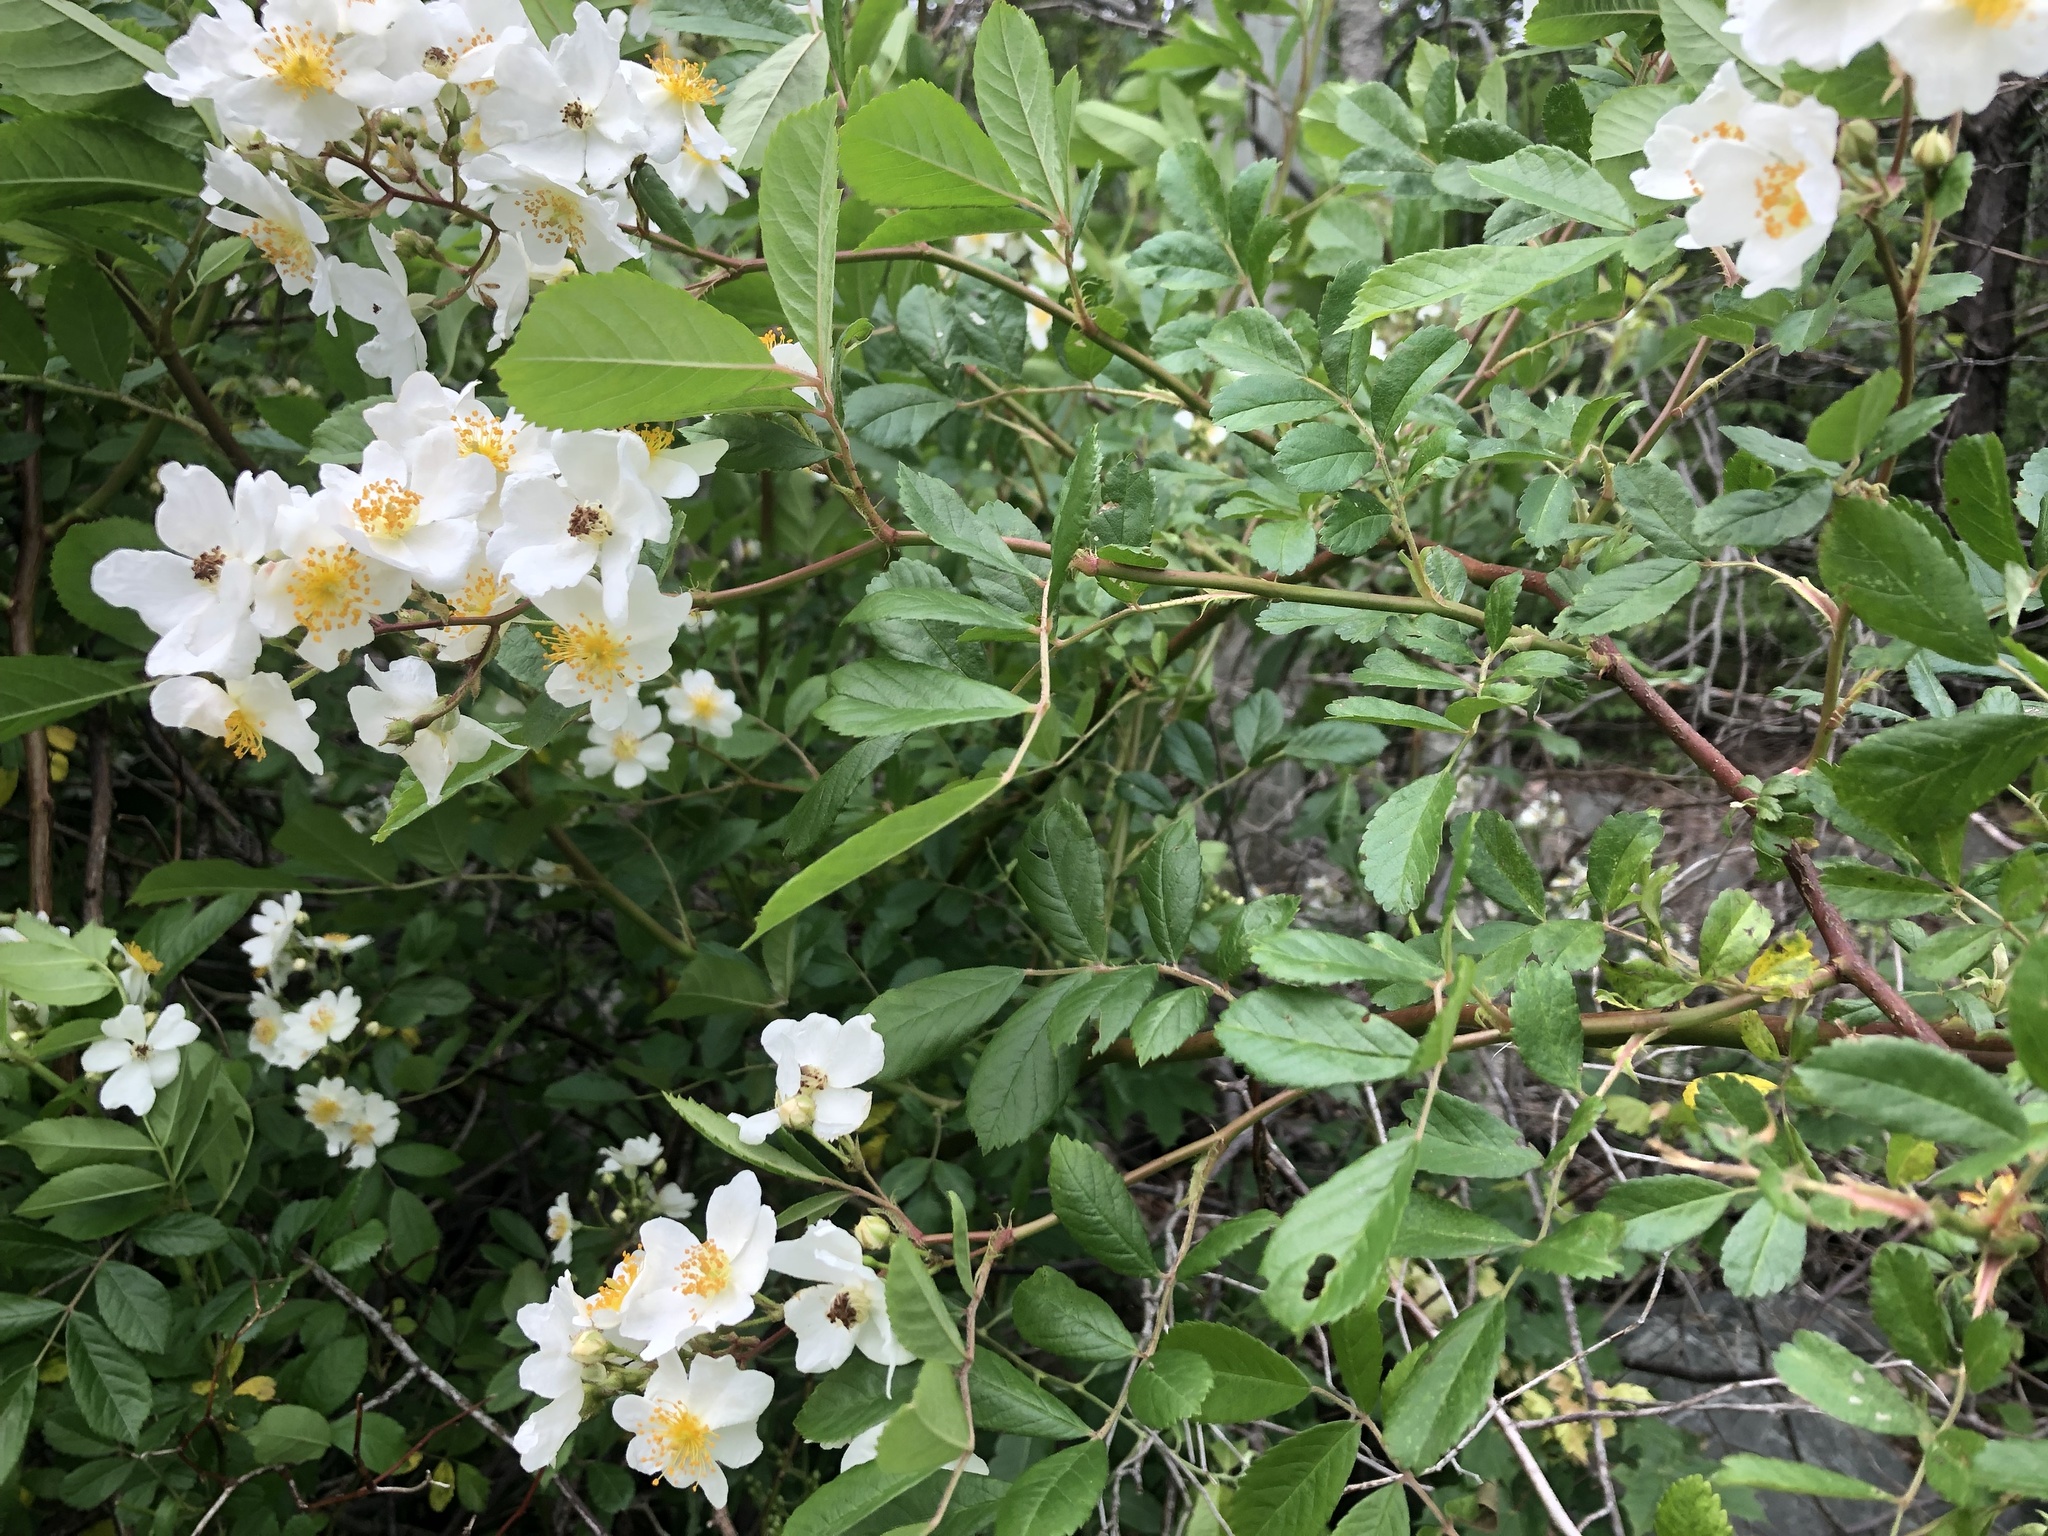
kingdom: Plantae
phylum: Tracheophyta
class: Magnoliopsida
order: Rosales
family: Rosaceae
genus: Rosa
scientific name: Rosa multiflora
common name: Multiflora rose
